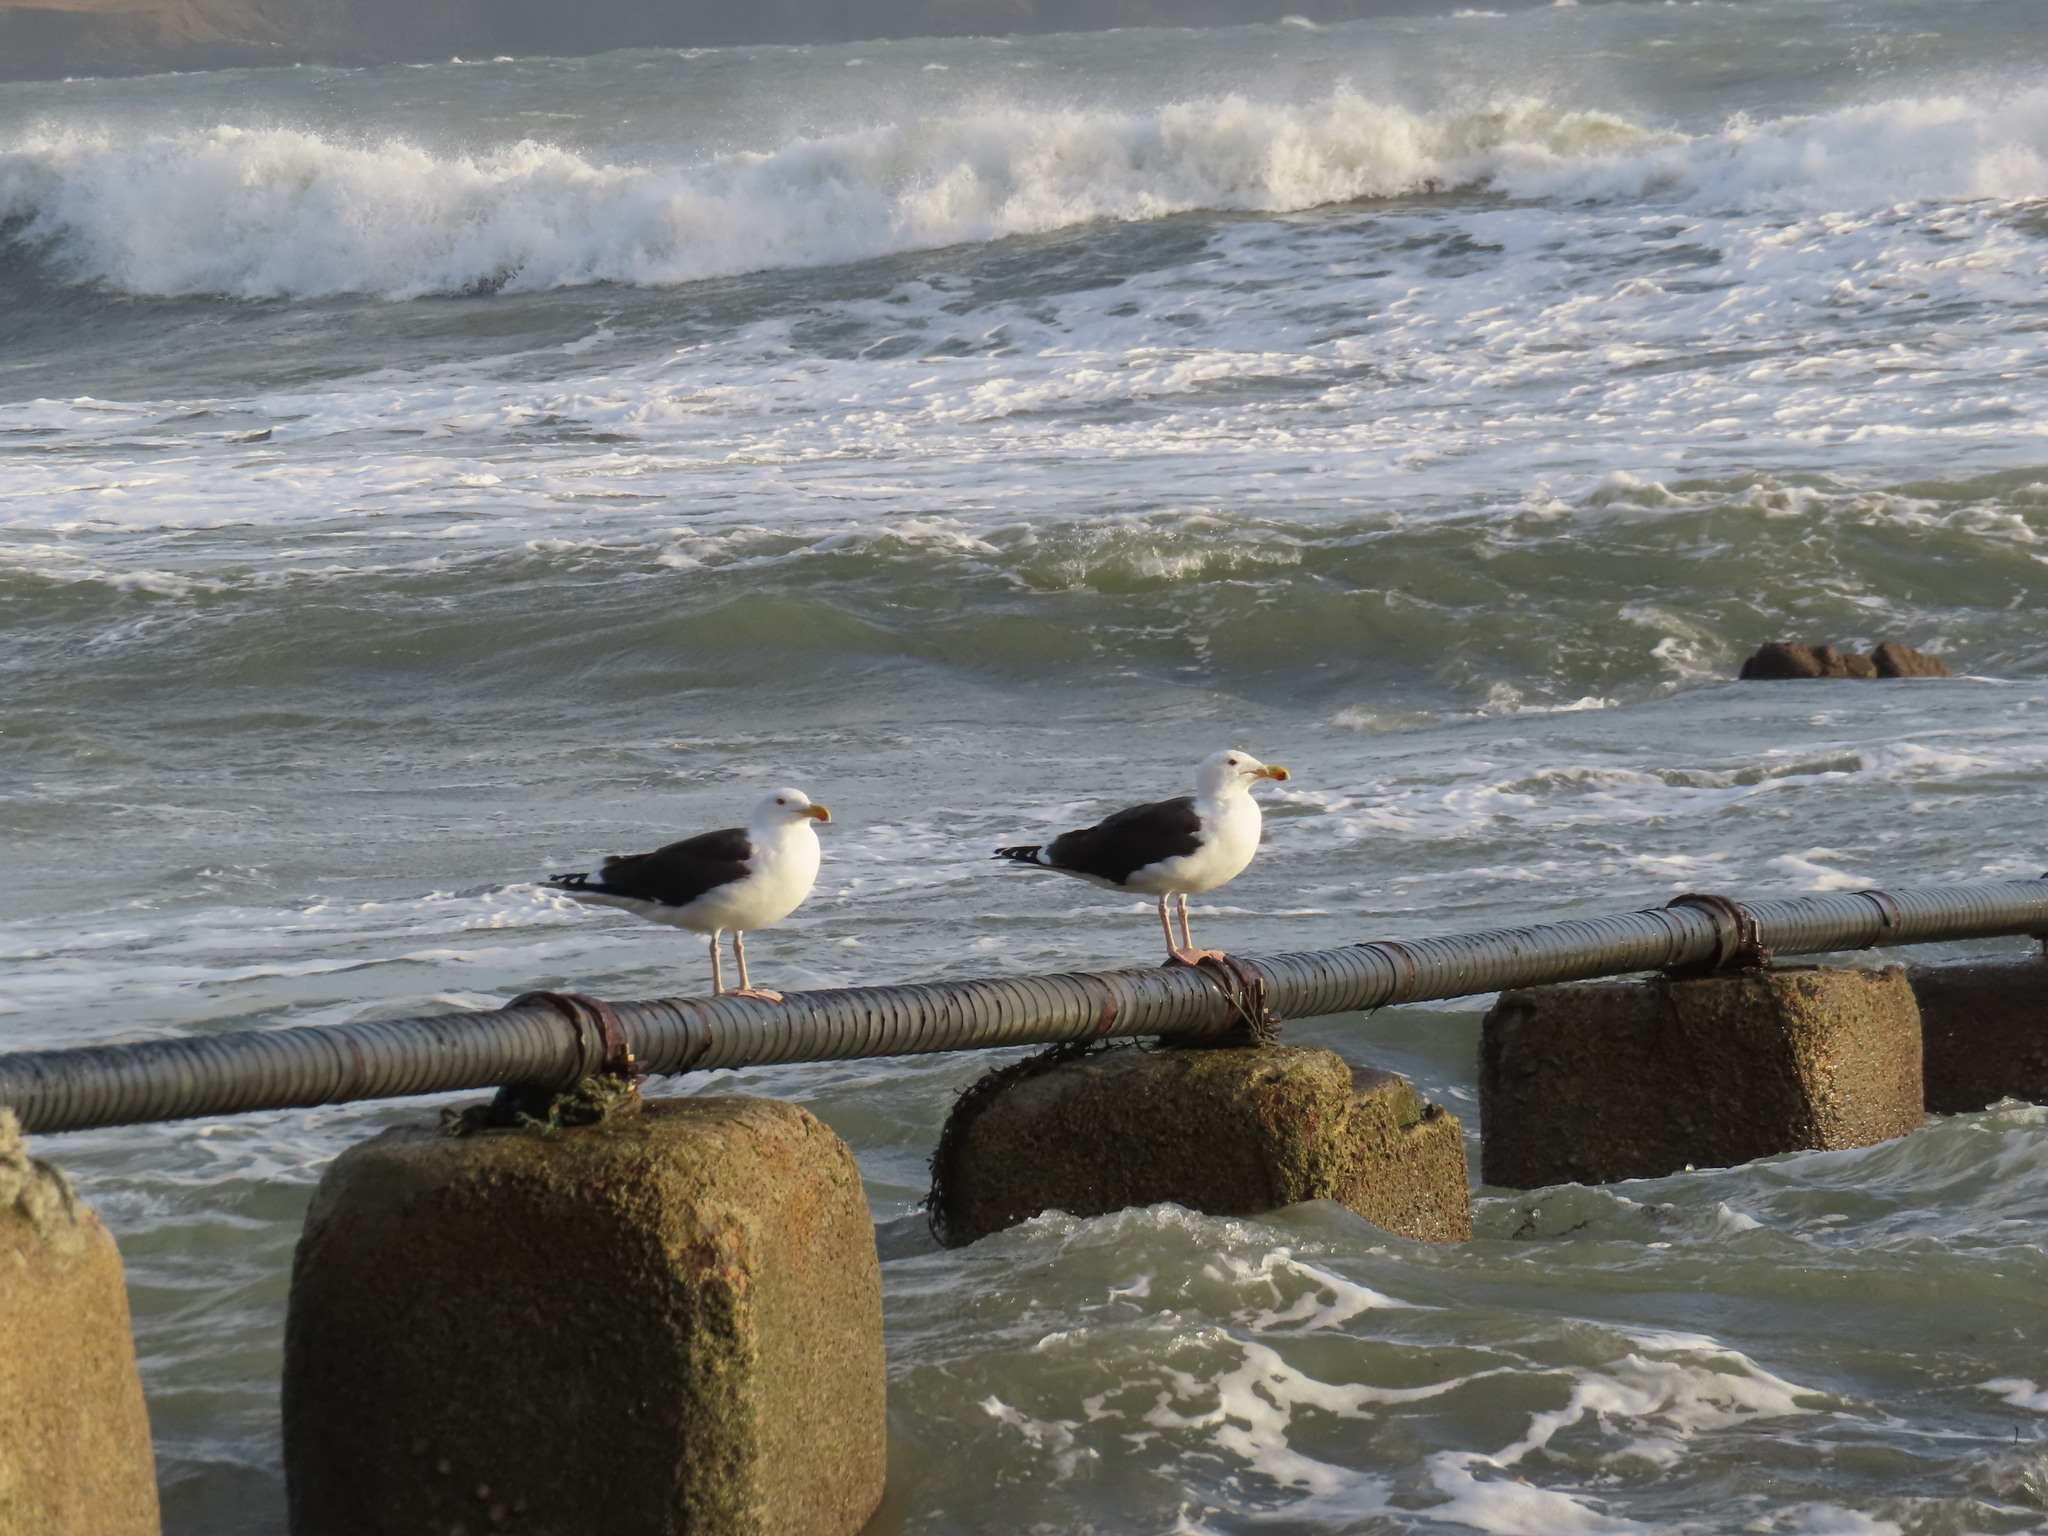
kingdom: Animalia
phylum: Chordata
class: Aves
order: Charadriiformes
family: Laridae
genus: Larus
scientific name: Larus marinus
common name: Great black-backed gull
